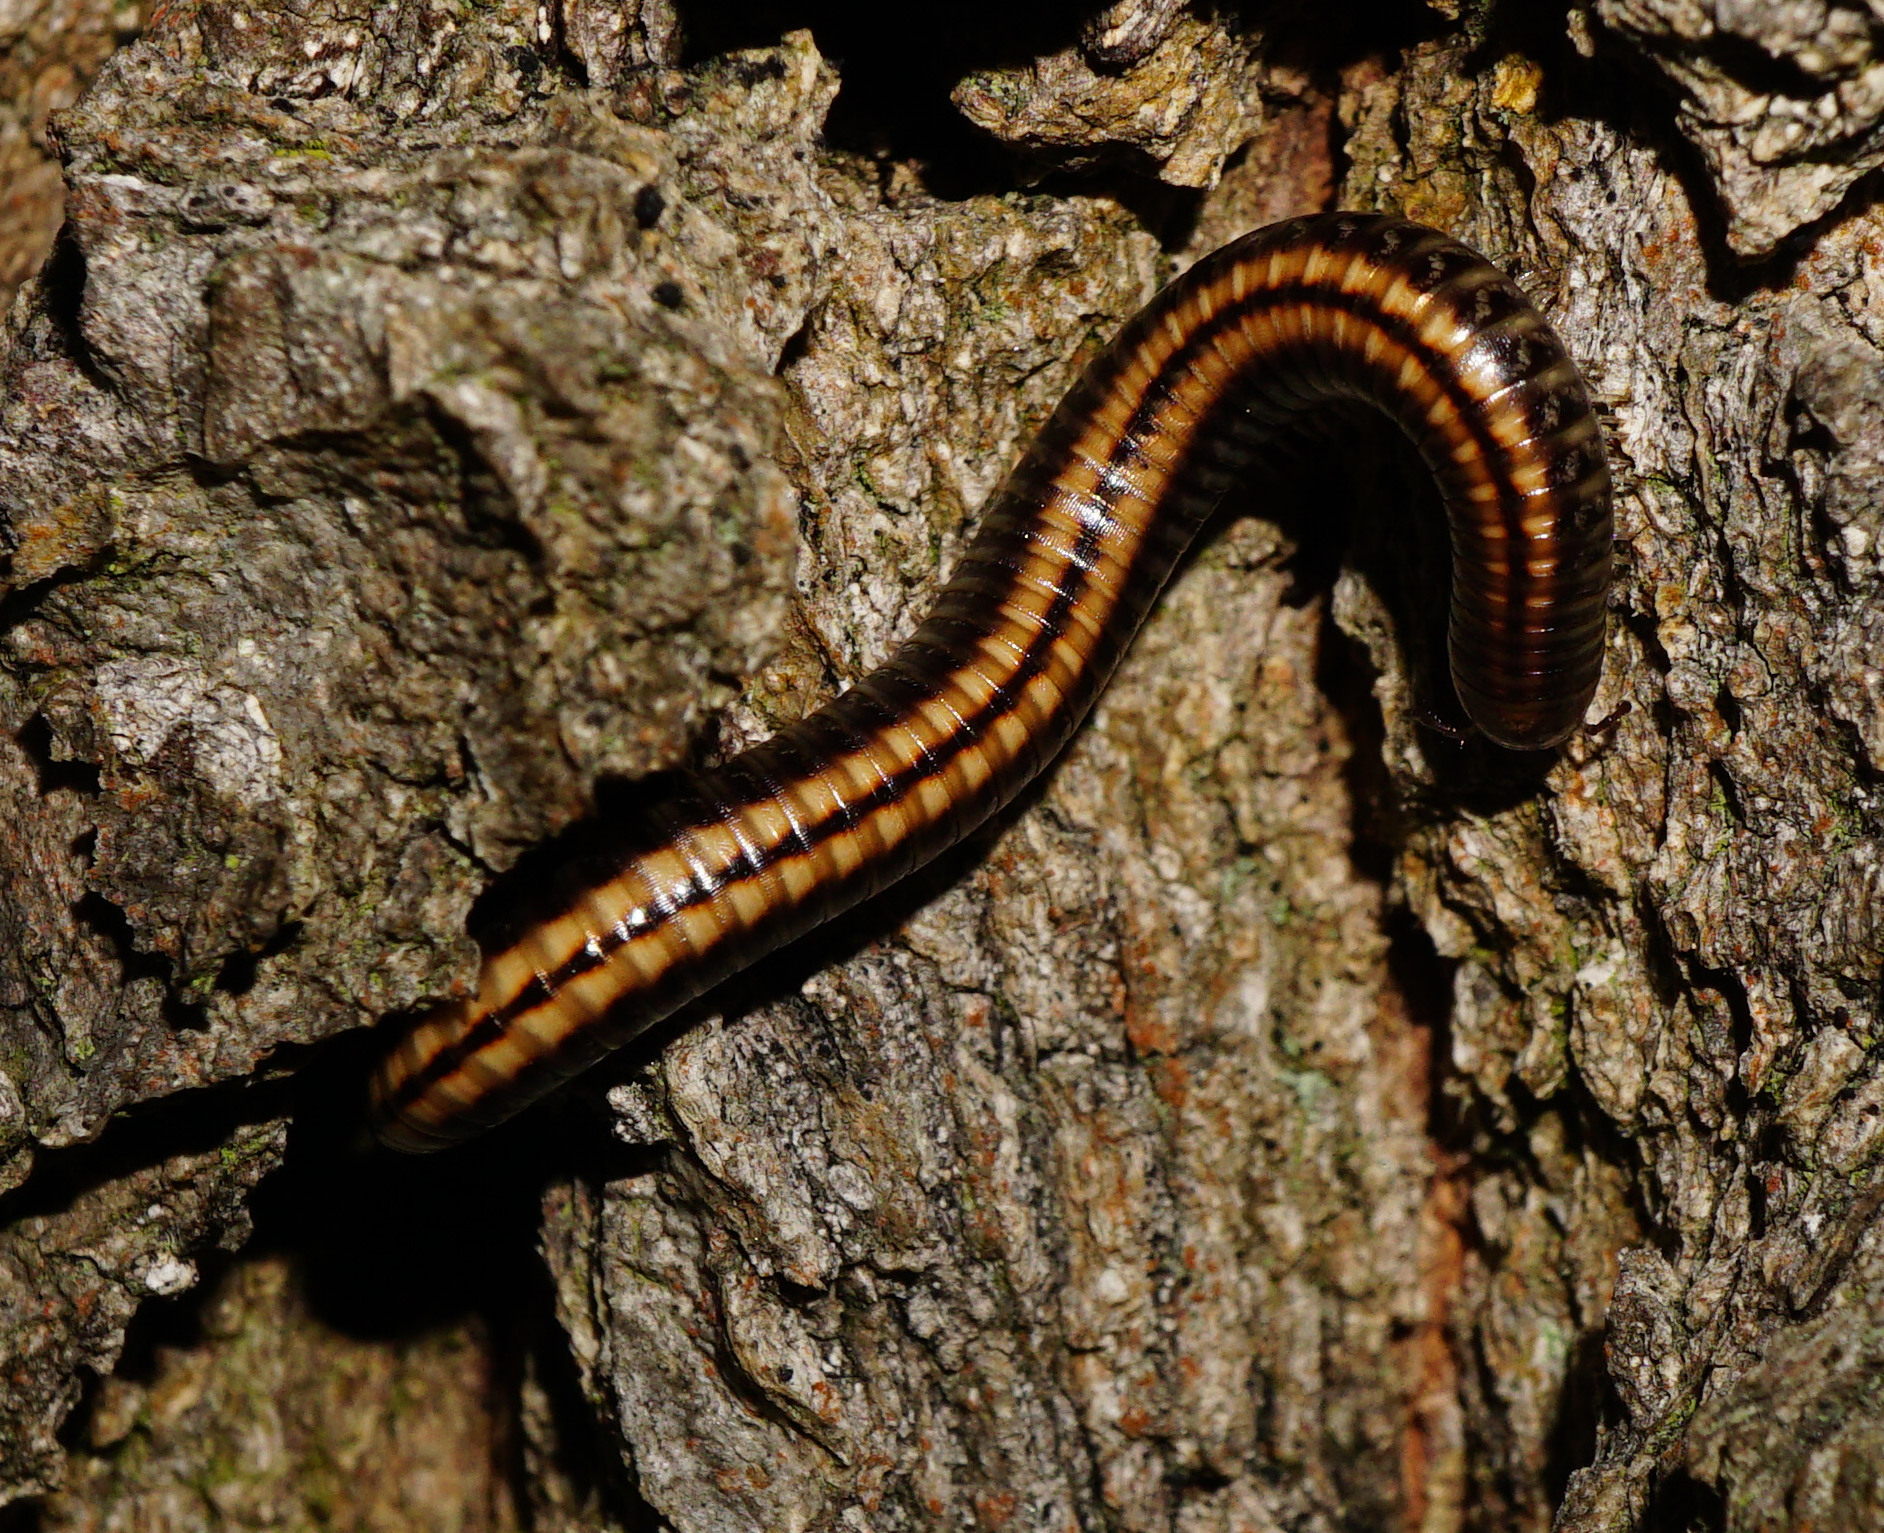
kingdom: Animalia
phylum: Arthropoda
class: Diplopoda
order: Julida
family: Julidae
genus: Ommatoiulus
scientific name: Ommatoiulus sabulosus
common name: Striped millipede
